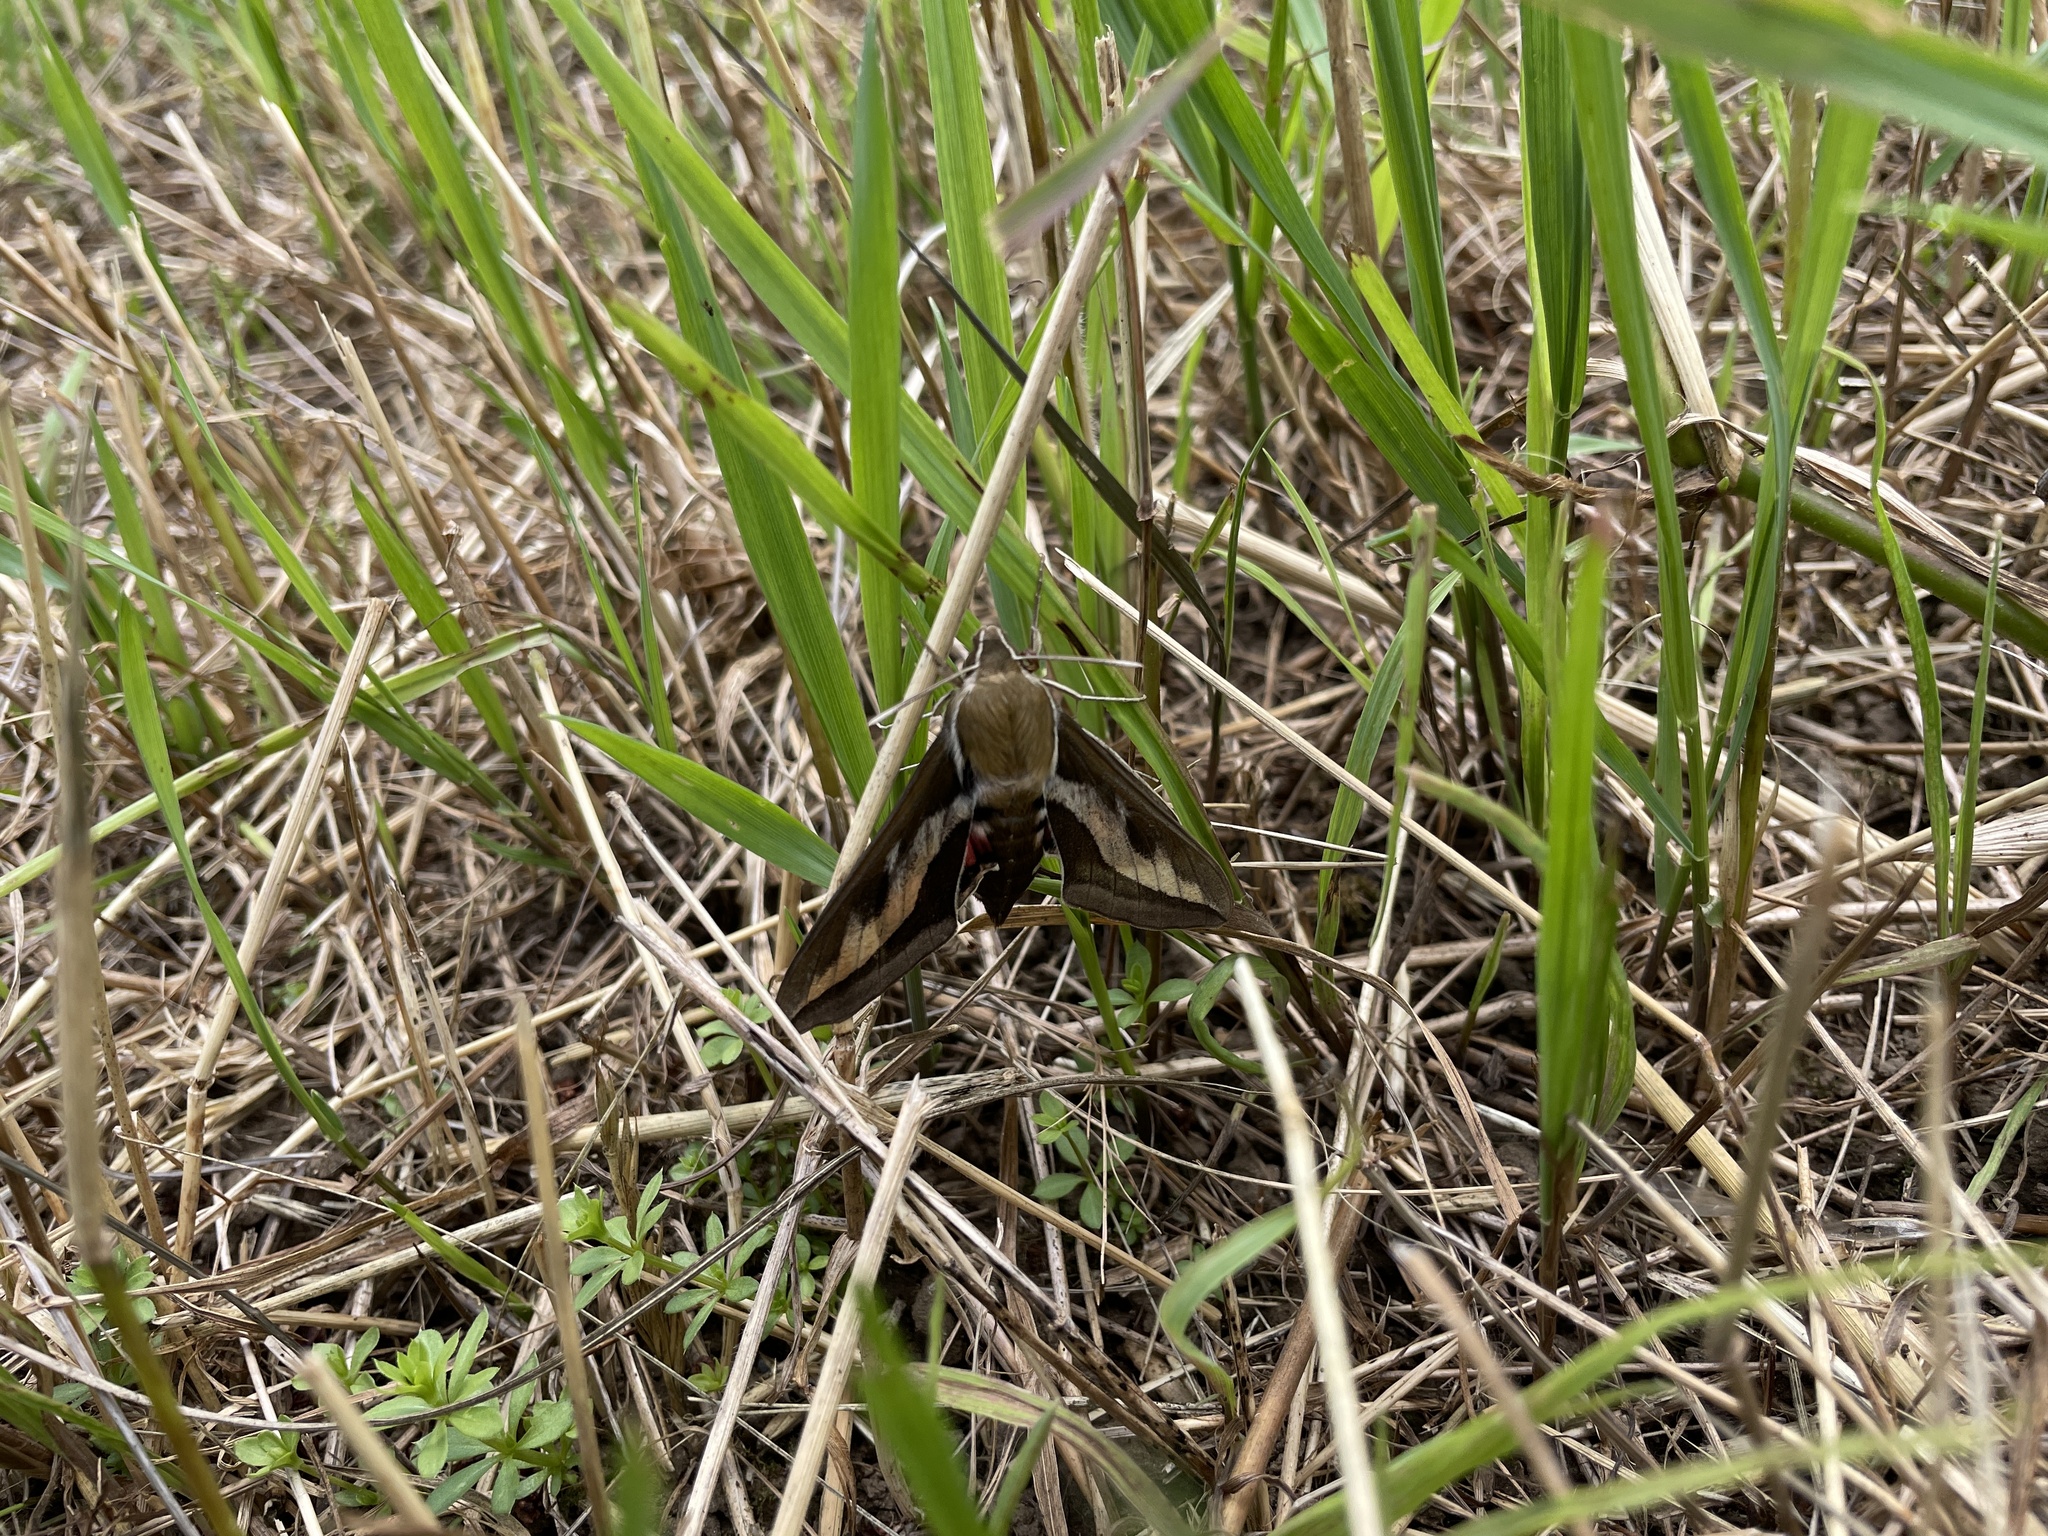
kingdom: Animalia
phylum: Arthropoda
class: Insecta
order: Lepidoptera
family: Sphingidae
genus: Hyles
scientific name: Hyles gallii
